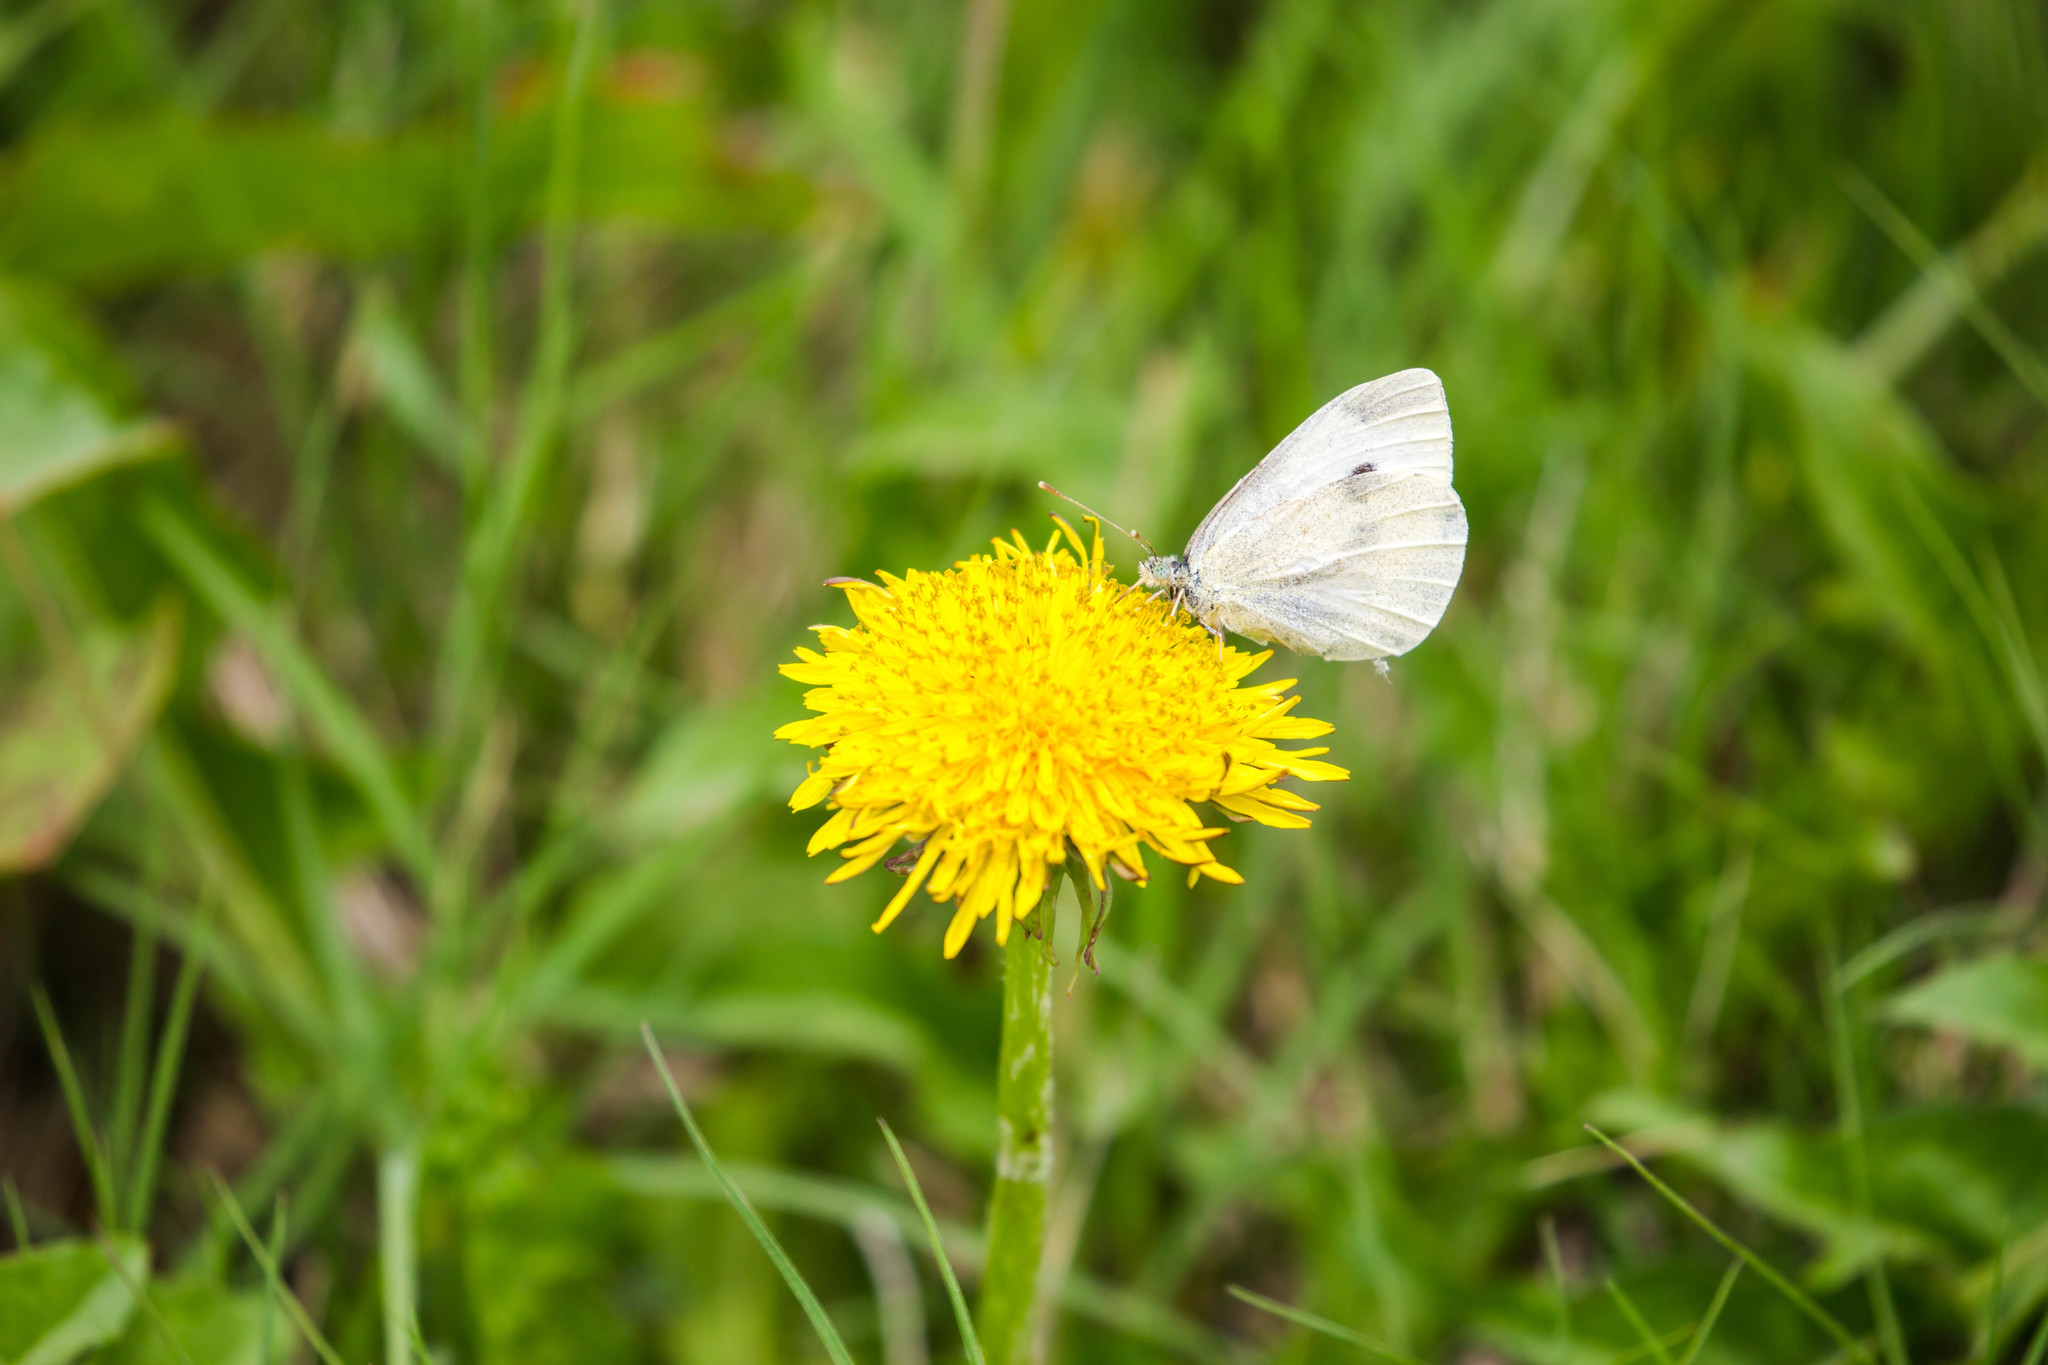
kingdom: Animalia
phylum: Arthropoda
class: Insecta
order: Lepidoptera
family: Pieridae
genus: Pieris
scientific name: Pieris rapae
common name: Small white
